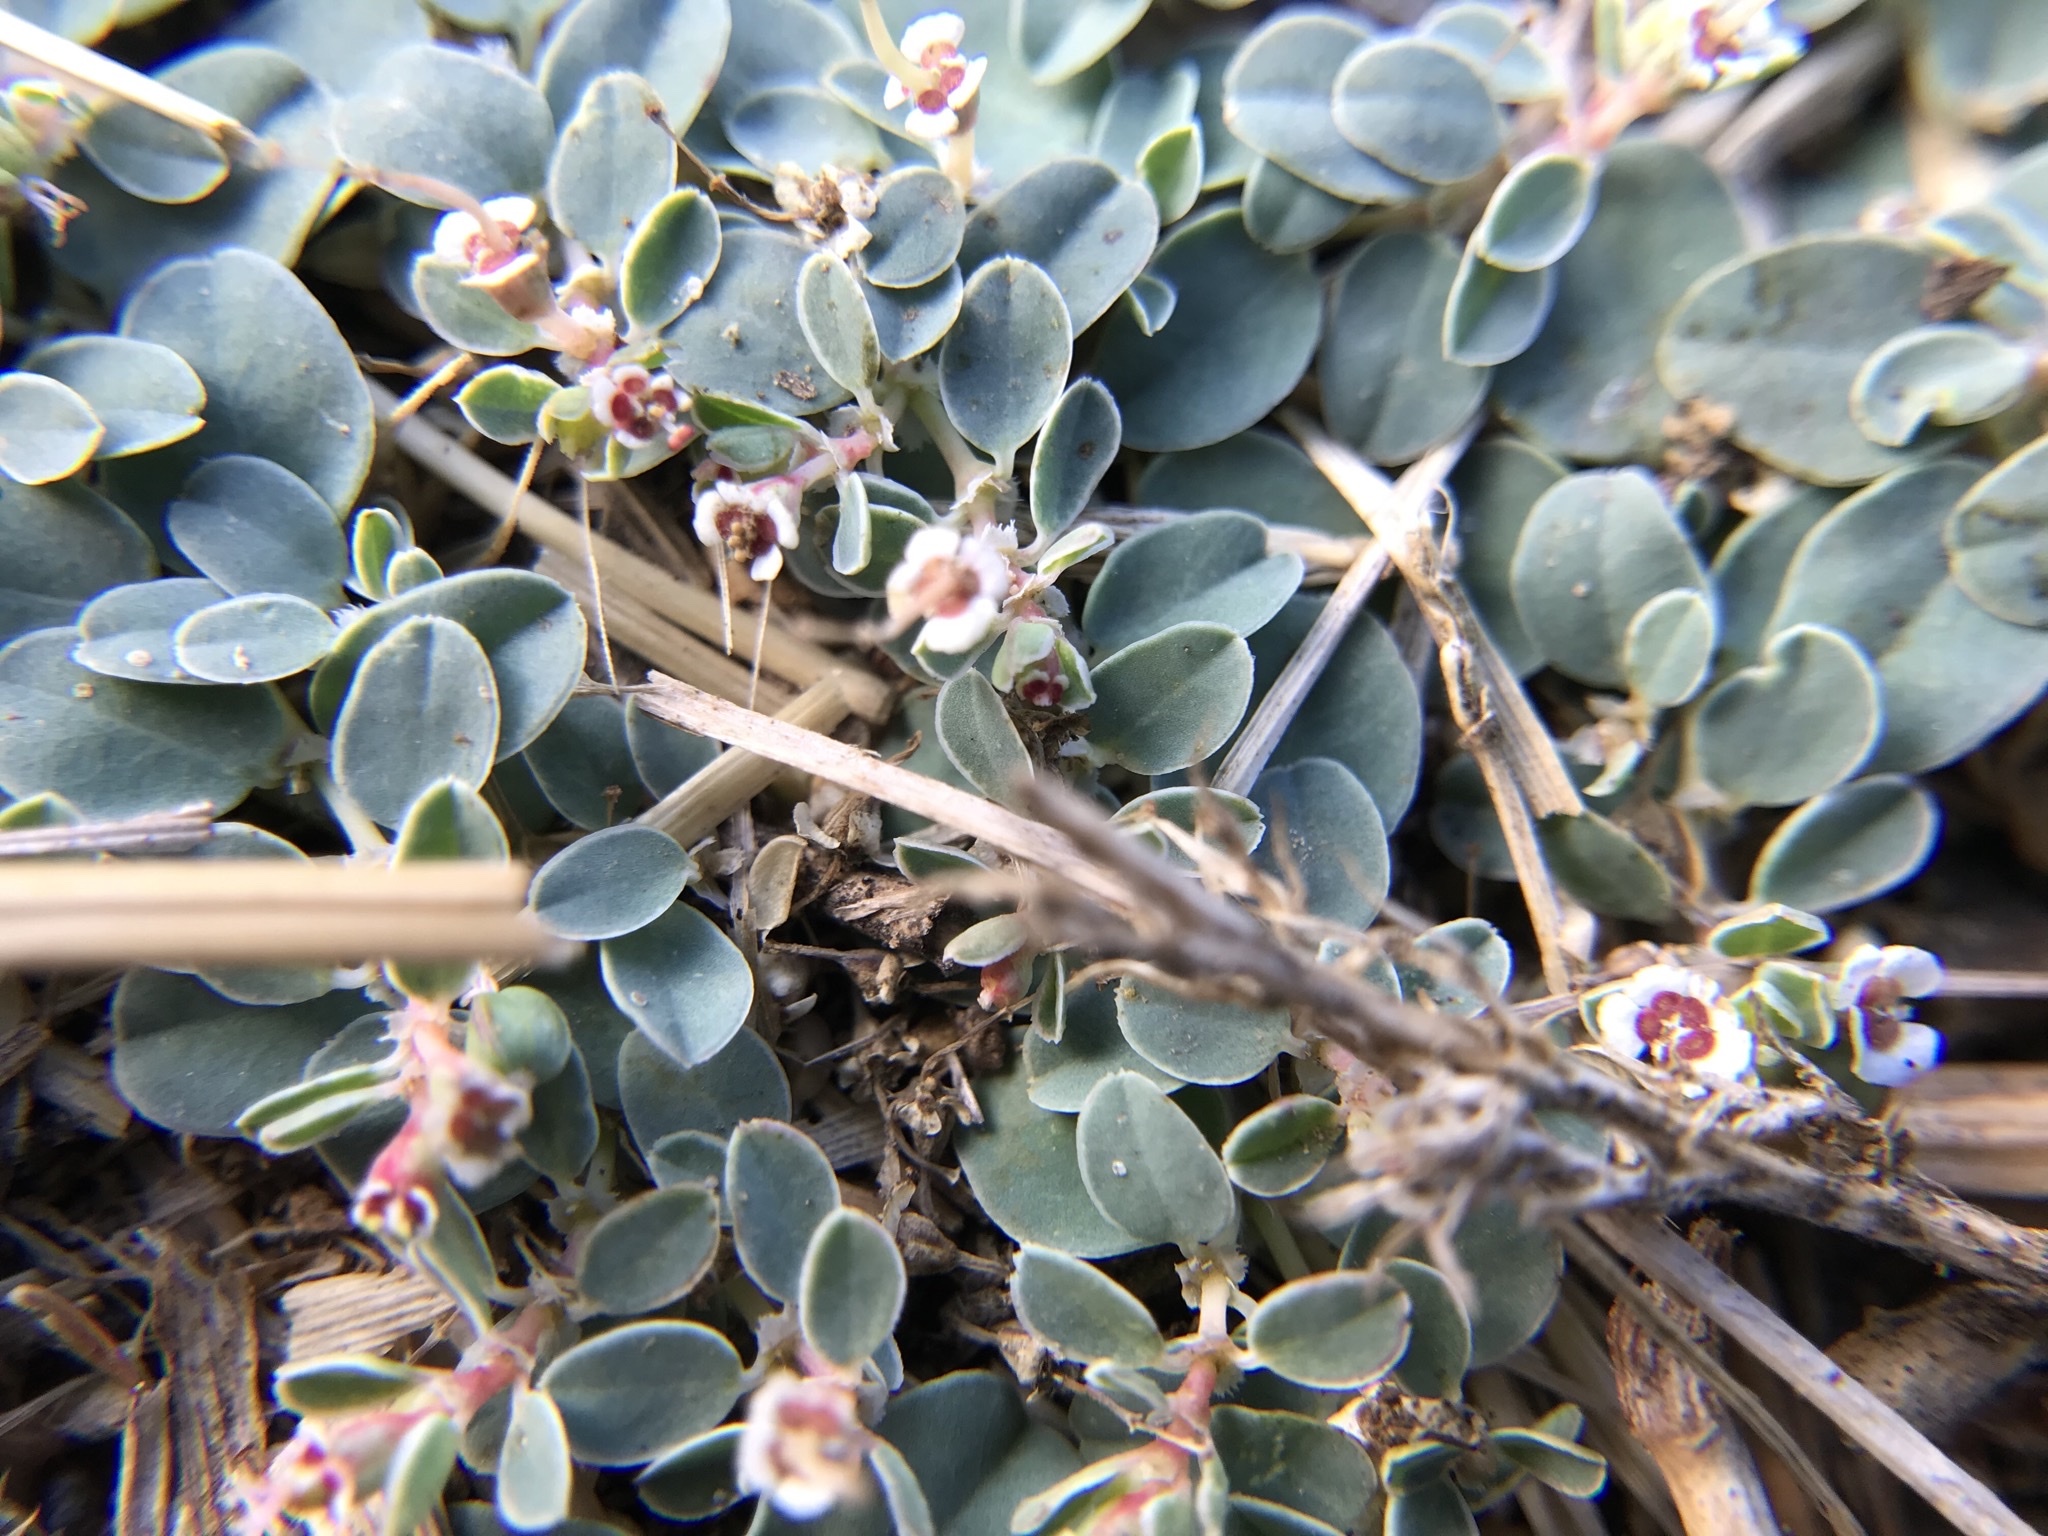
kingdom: Plantae
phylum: Tracheophyta
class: Magnoliopsida
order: Malpighiales
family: Euphorbiaceae
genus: Euphorbia
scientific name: Euphorbia albomarginata
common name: Whitemargin sandmat
